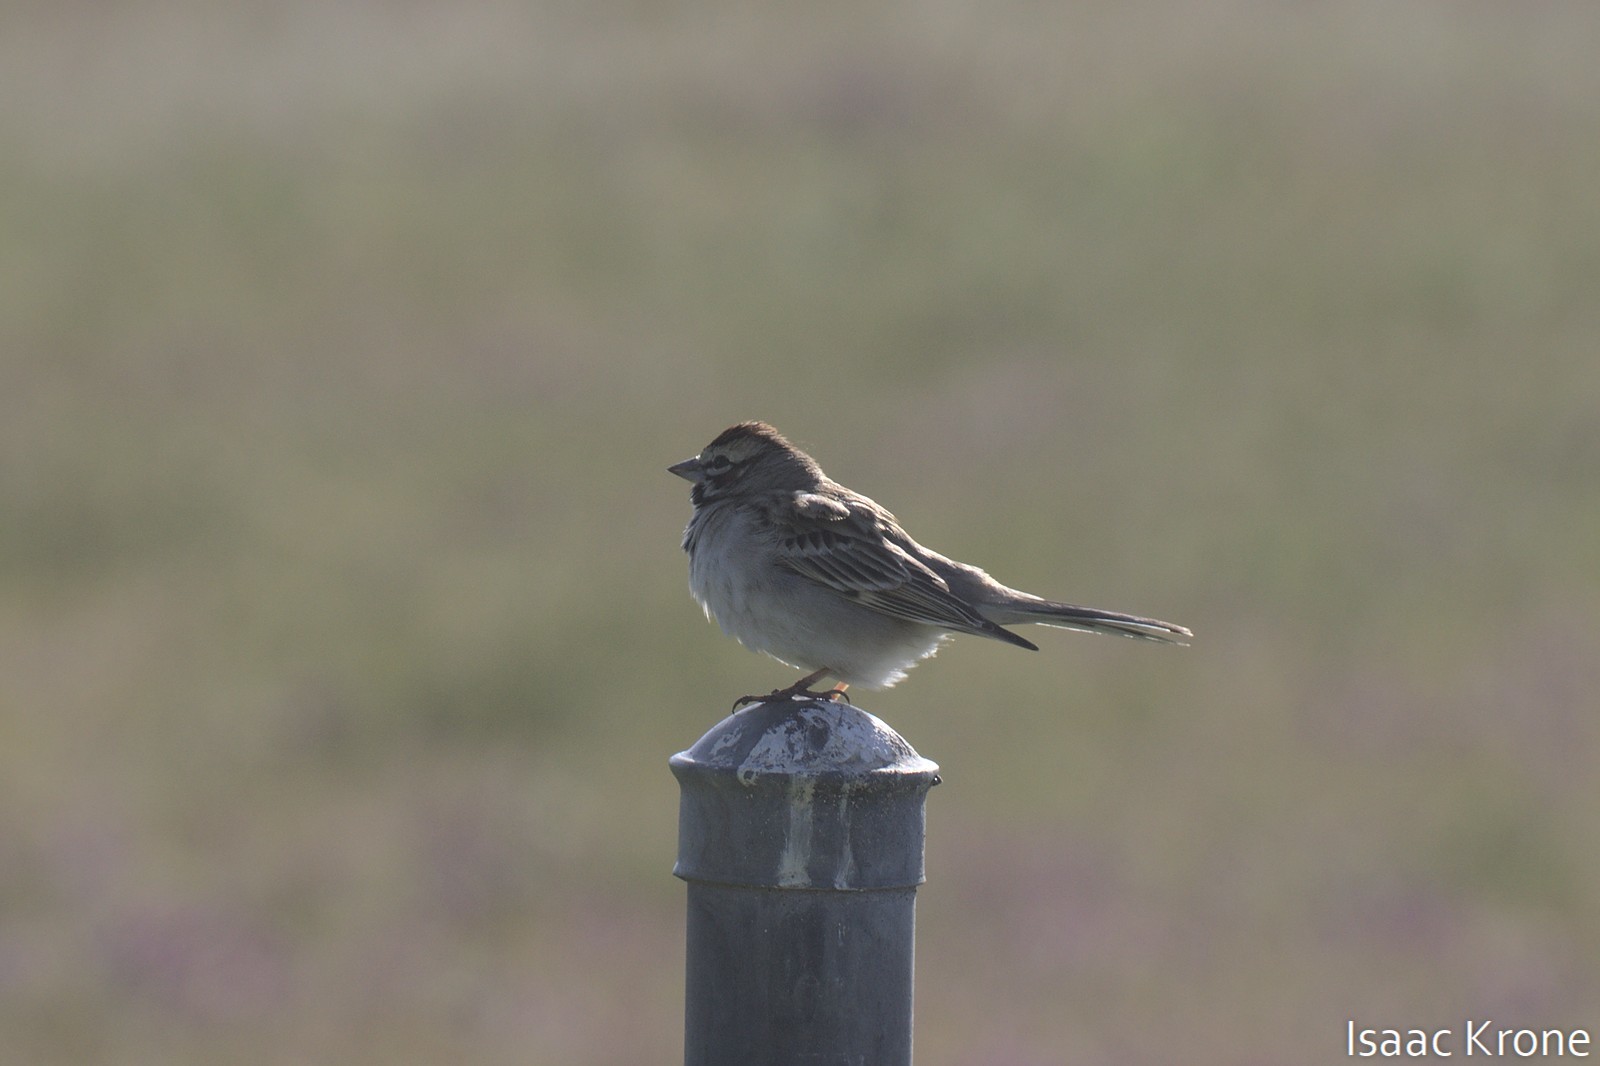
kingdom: Animalia
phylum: Chordata
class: Aves
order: Passeriformes
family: Passerellidae
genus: Chondestes
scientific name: Chondestes grammacus
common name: Lark sparrow
